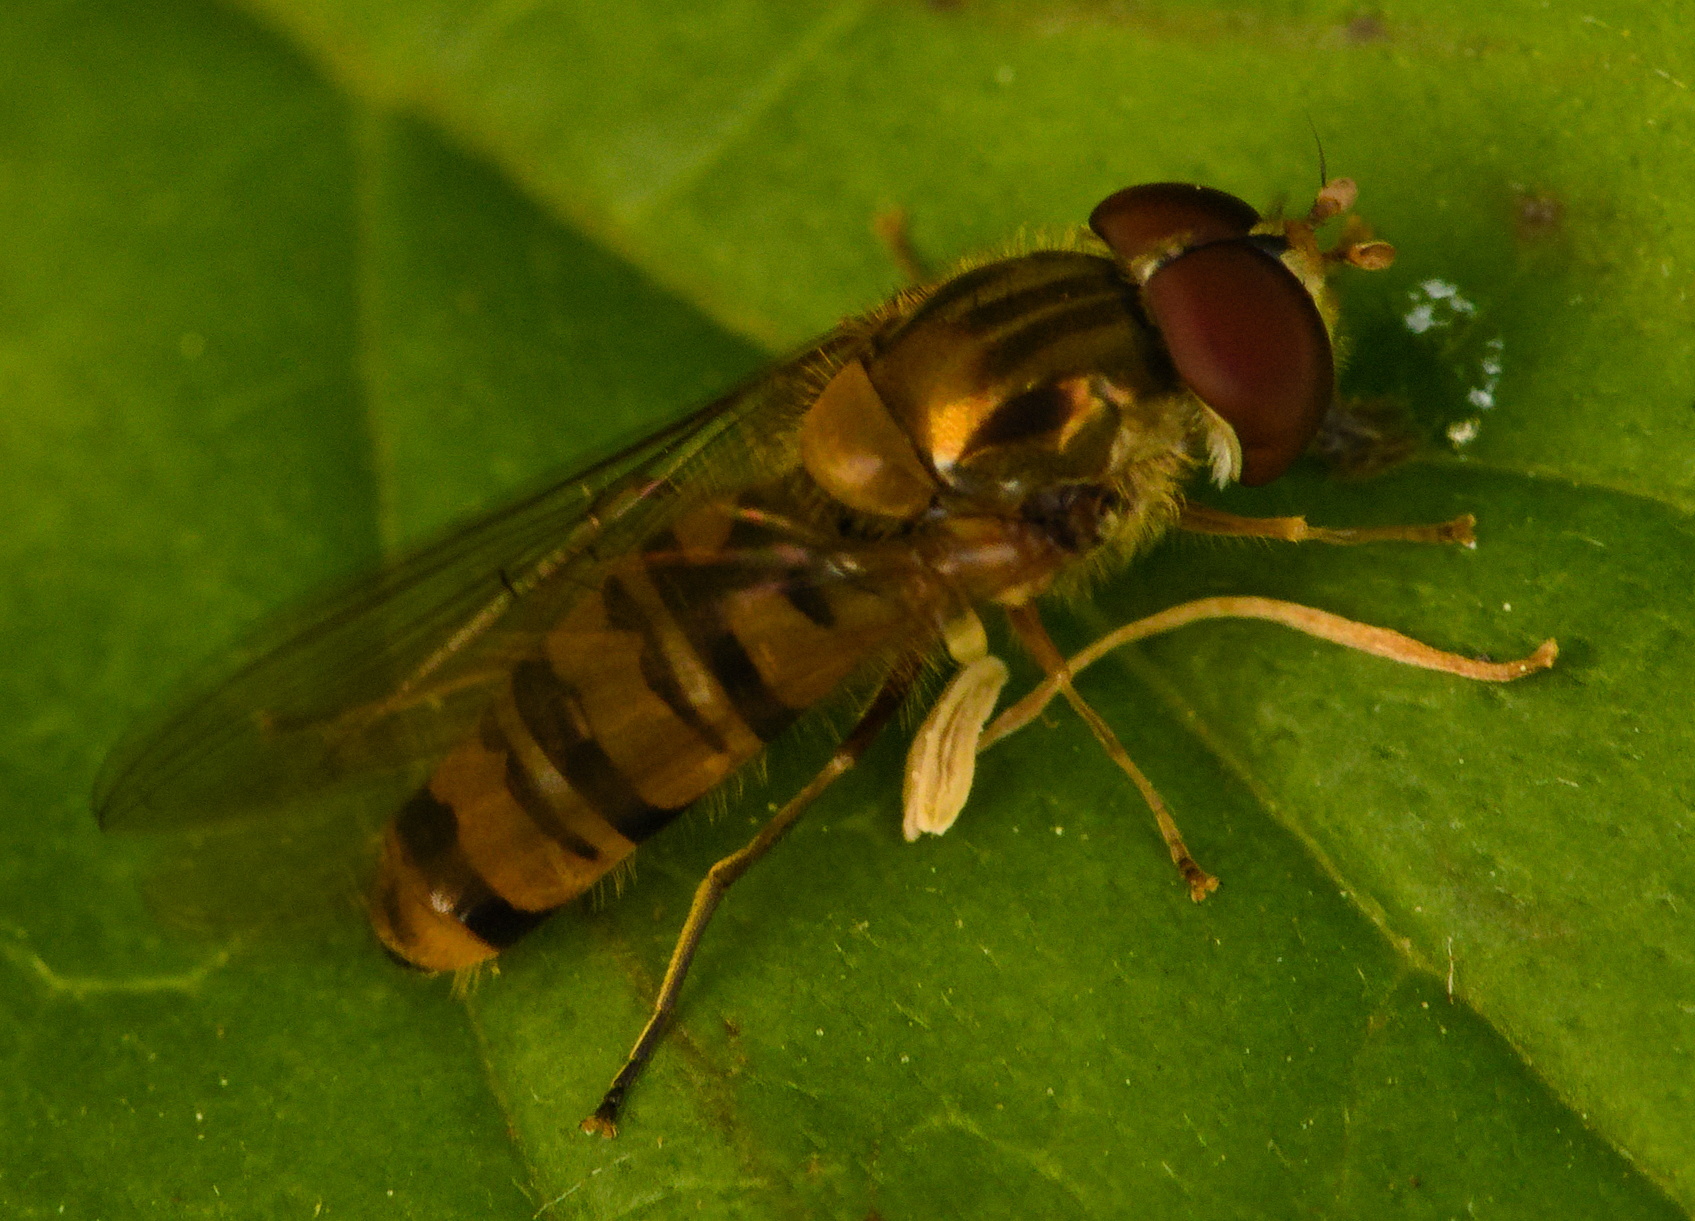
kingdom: Animalia
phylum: Arthropoda
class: Insecta
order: Diptera
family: Syrphidae
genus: Episyrphus
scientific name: Episyrphus balteatus
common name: Marmalade hoverfly
